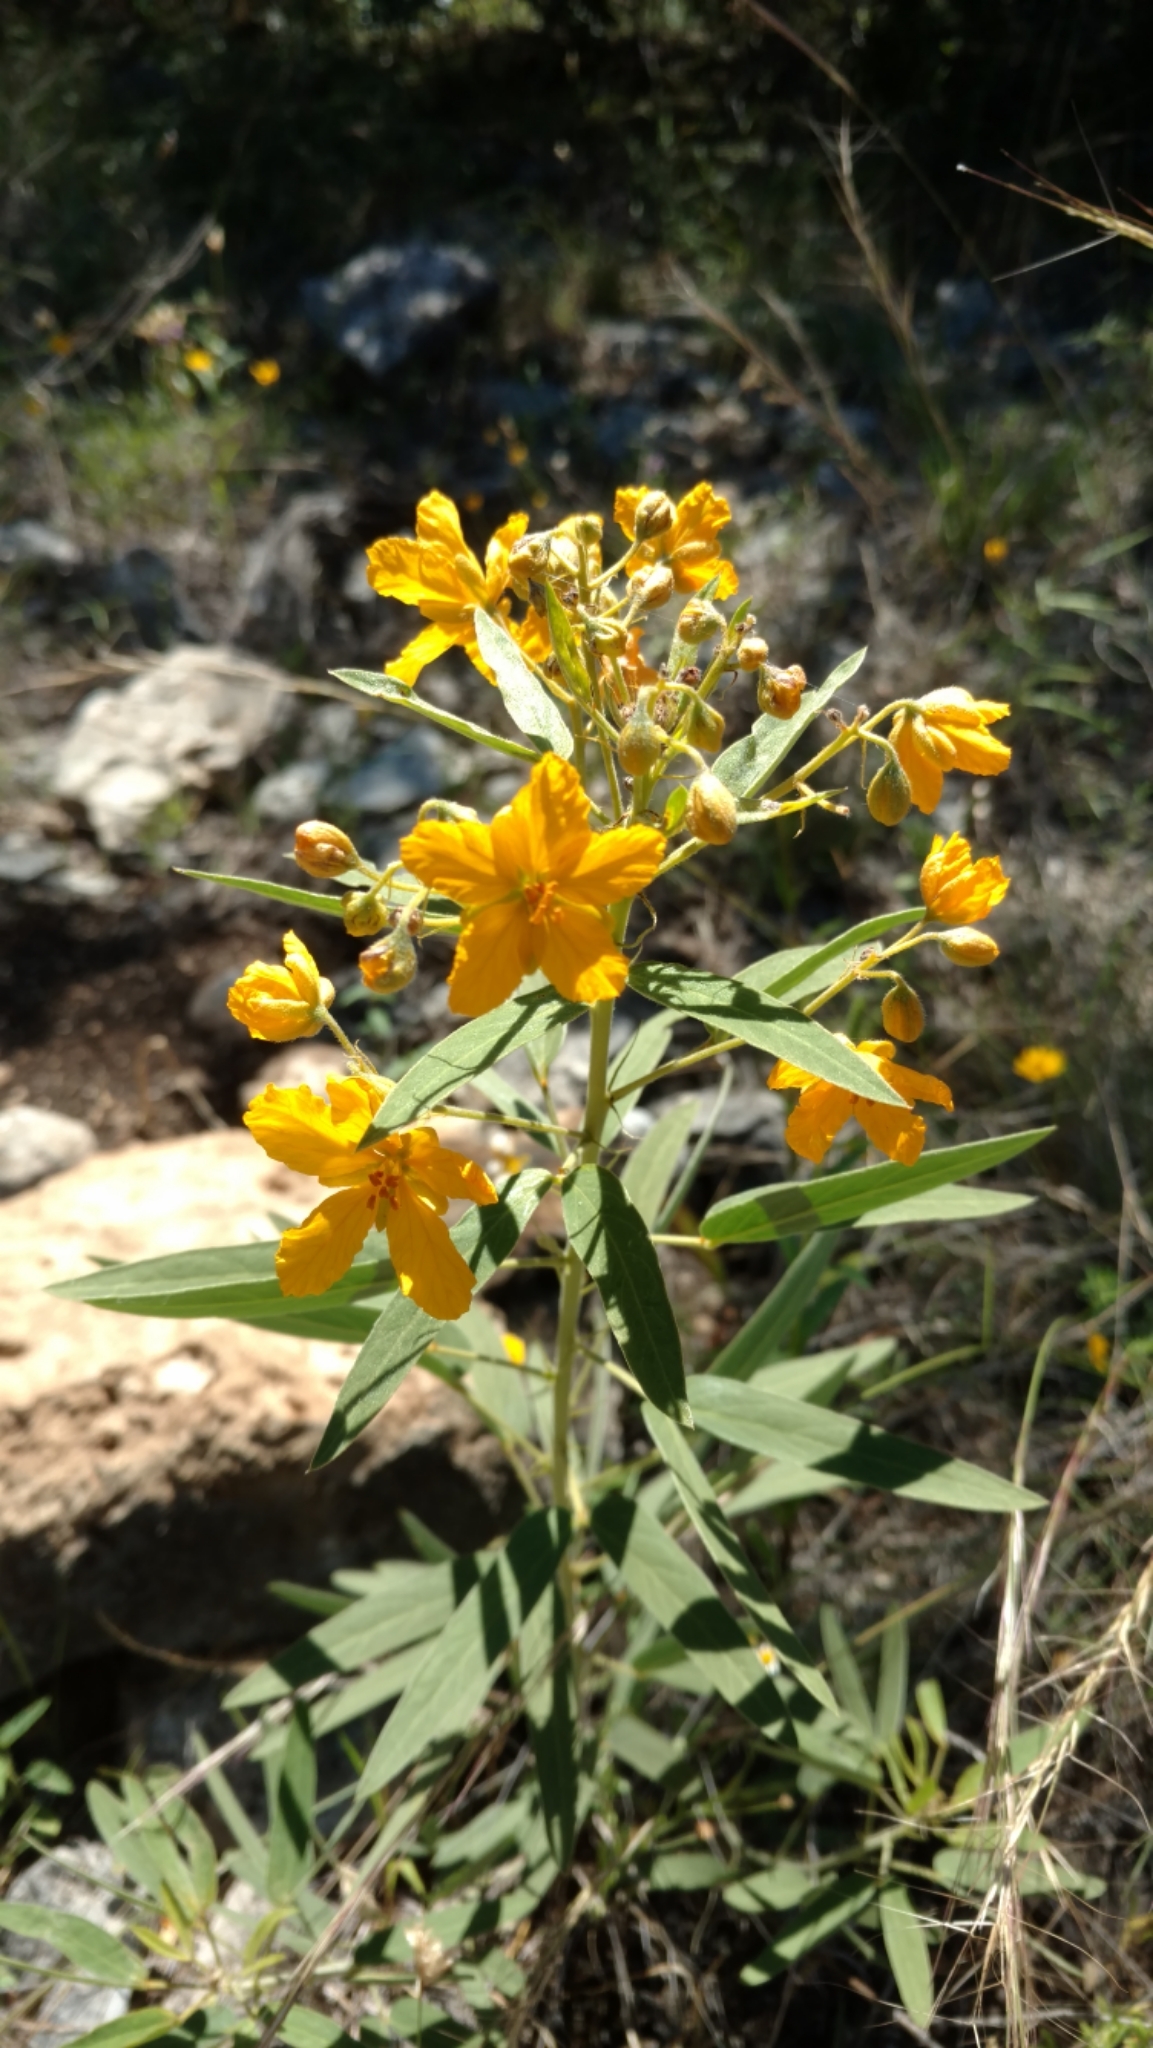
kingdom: Plantae
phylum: Tracheophyta
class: Magnoliopsida
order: Fabales
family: Fabaceae
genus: Senna
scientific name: Senna roemeriana
